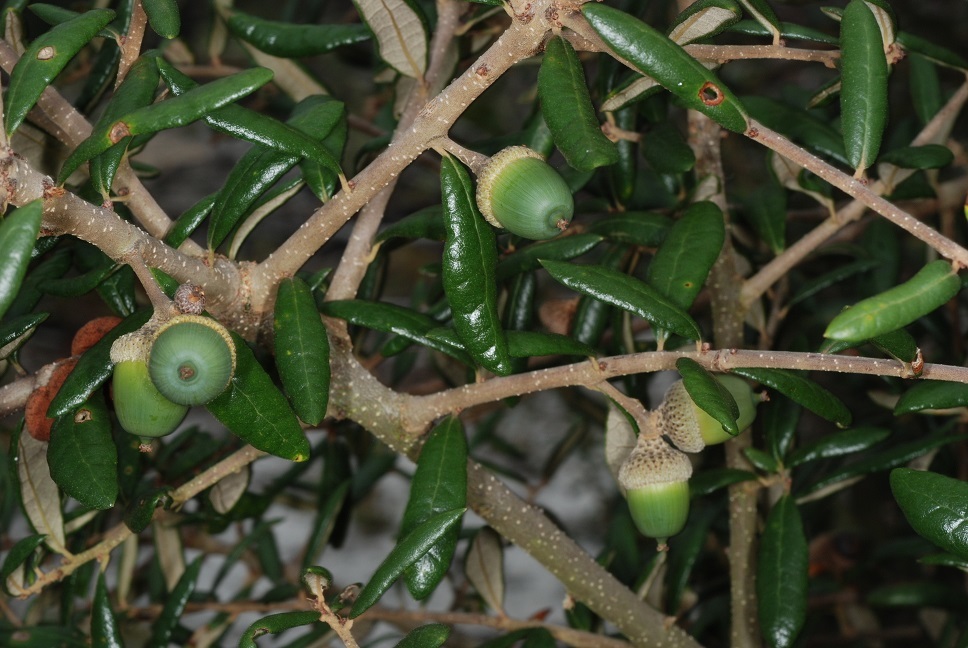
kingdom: Plantae
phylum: Tracheophyta
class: Magnoliopsida
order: Fagales
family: Fagaceae
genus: Quercus
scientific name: Quercus geminata
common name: Sand live oak
